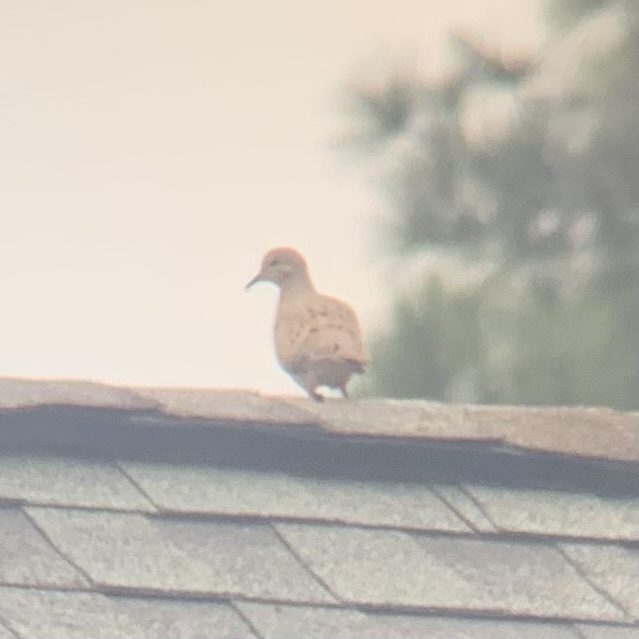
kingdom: Animalia
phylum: Chordata
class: Aves
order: Columbiformes
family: Columbidae
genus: Zenaida
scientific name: Zenaida macroura
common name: Mourning dove
